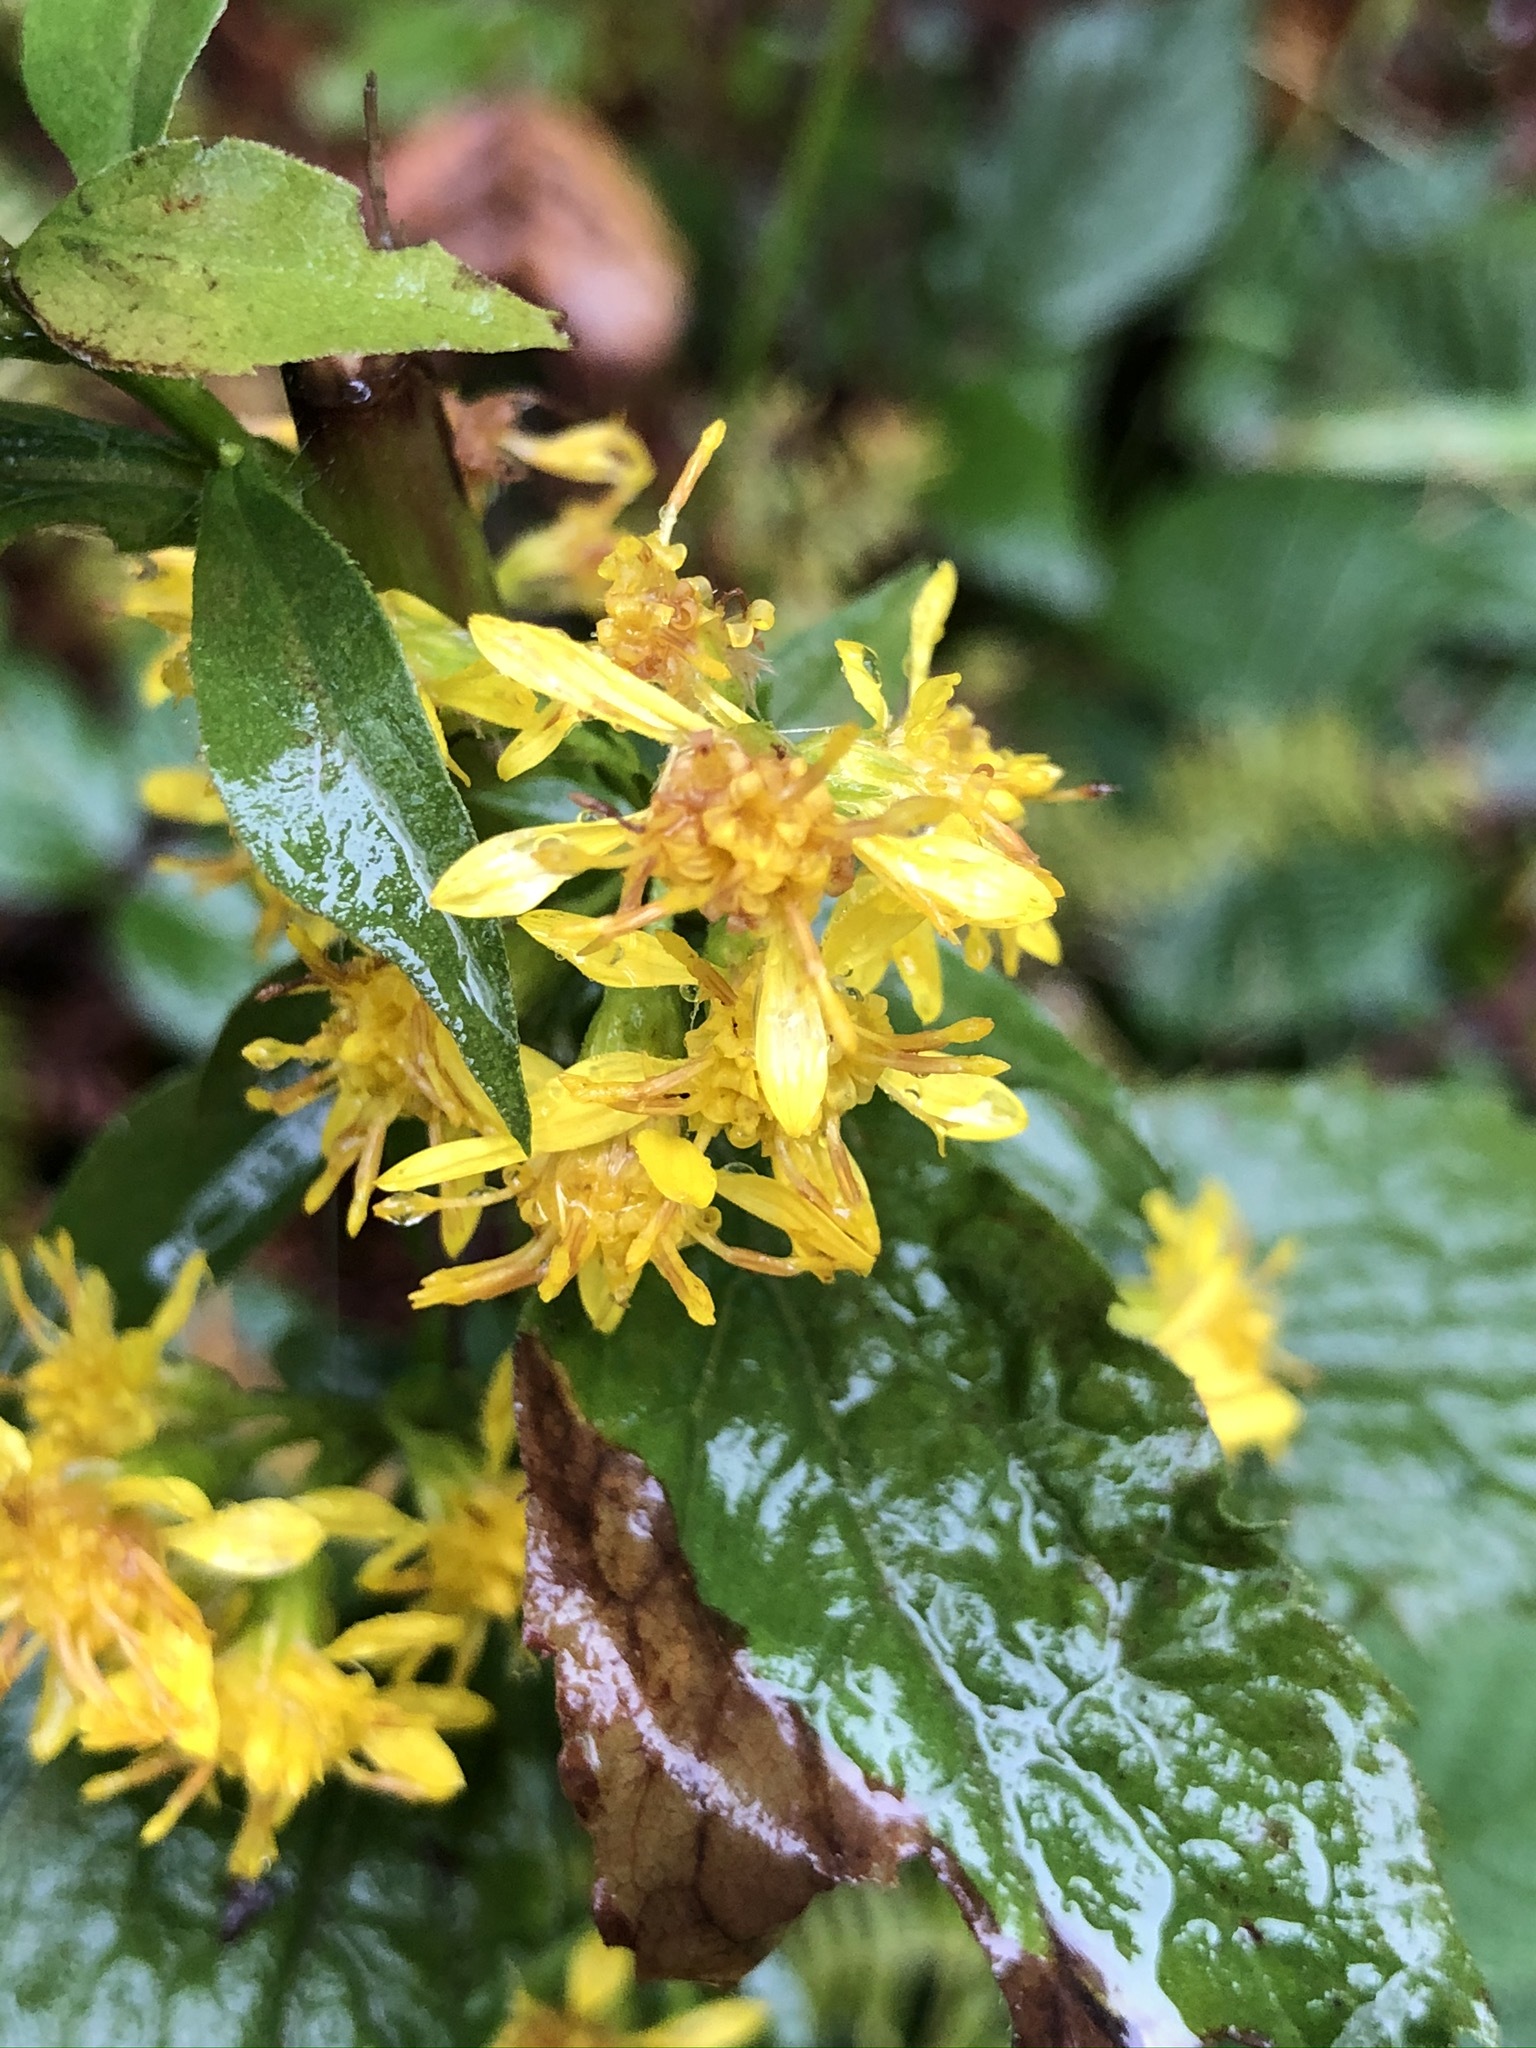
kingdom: Plantae
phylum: Tracheophyta
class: Magnoliopsida
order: Asterales
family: Asteraceae
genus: Solidago
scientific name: Solidago virgaurea
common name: Goldenrod
